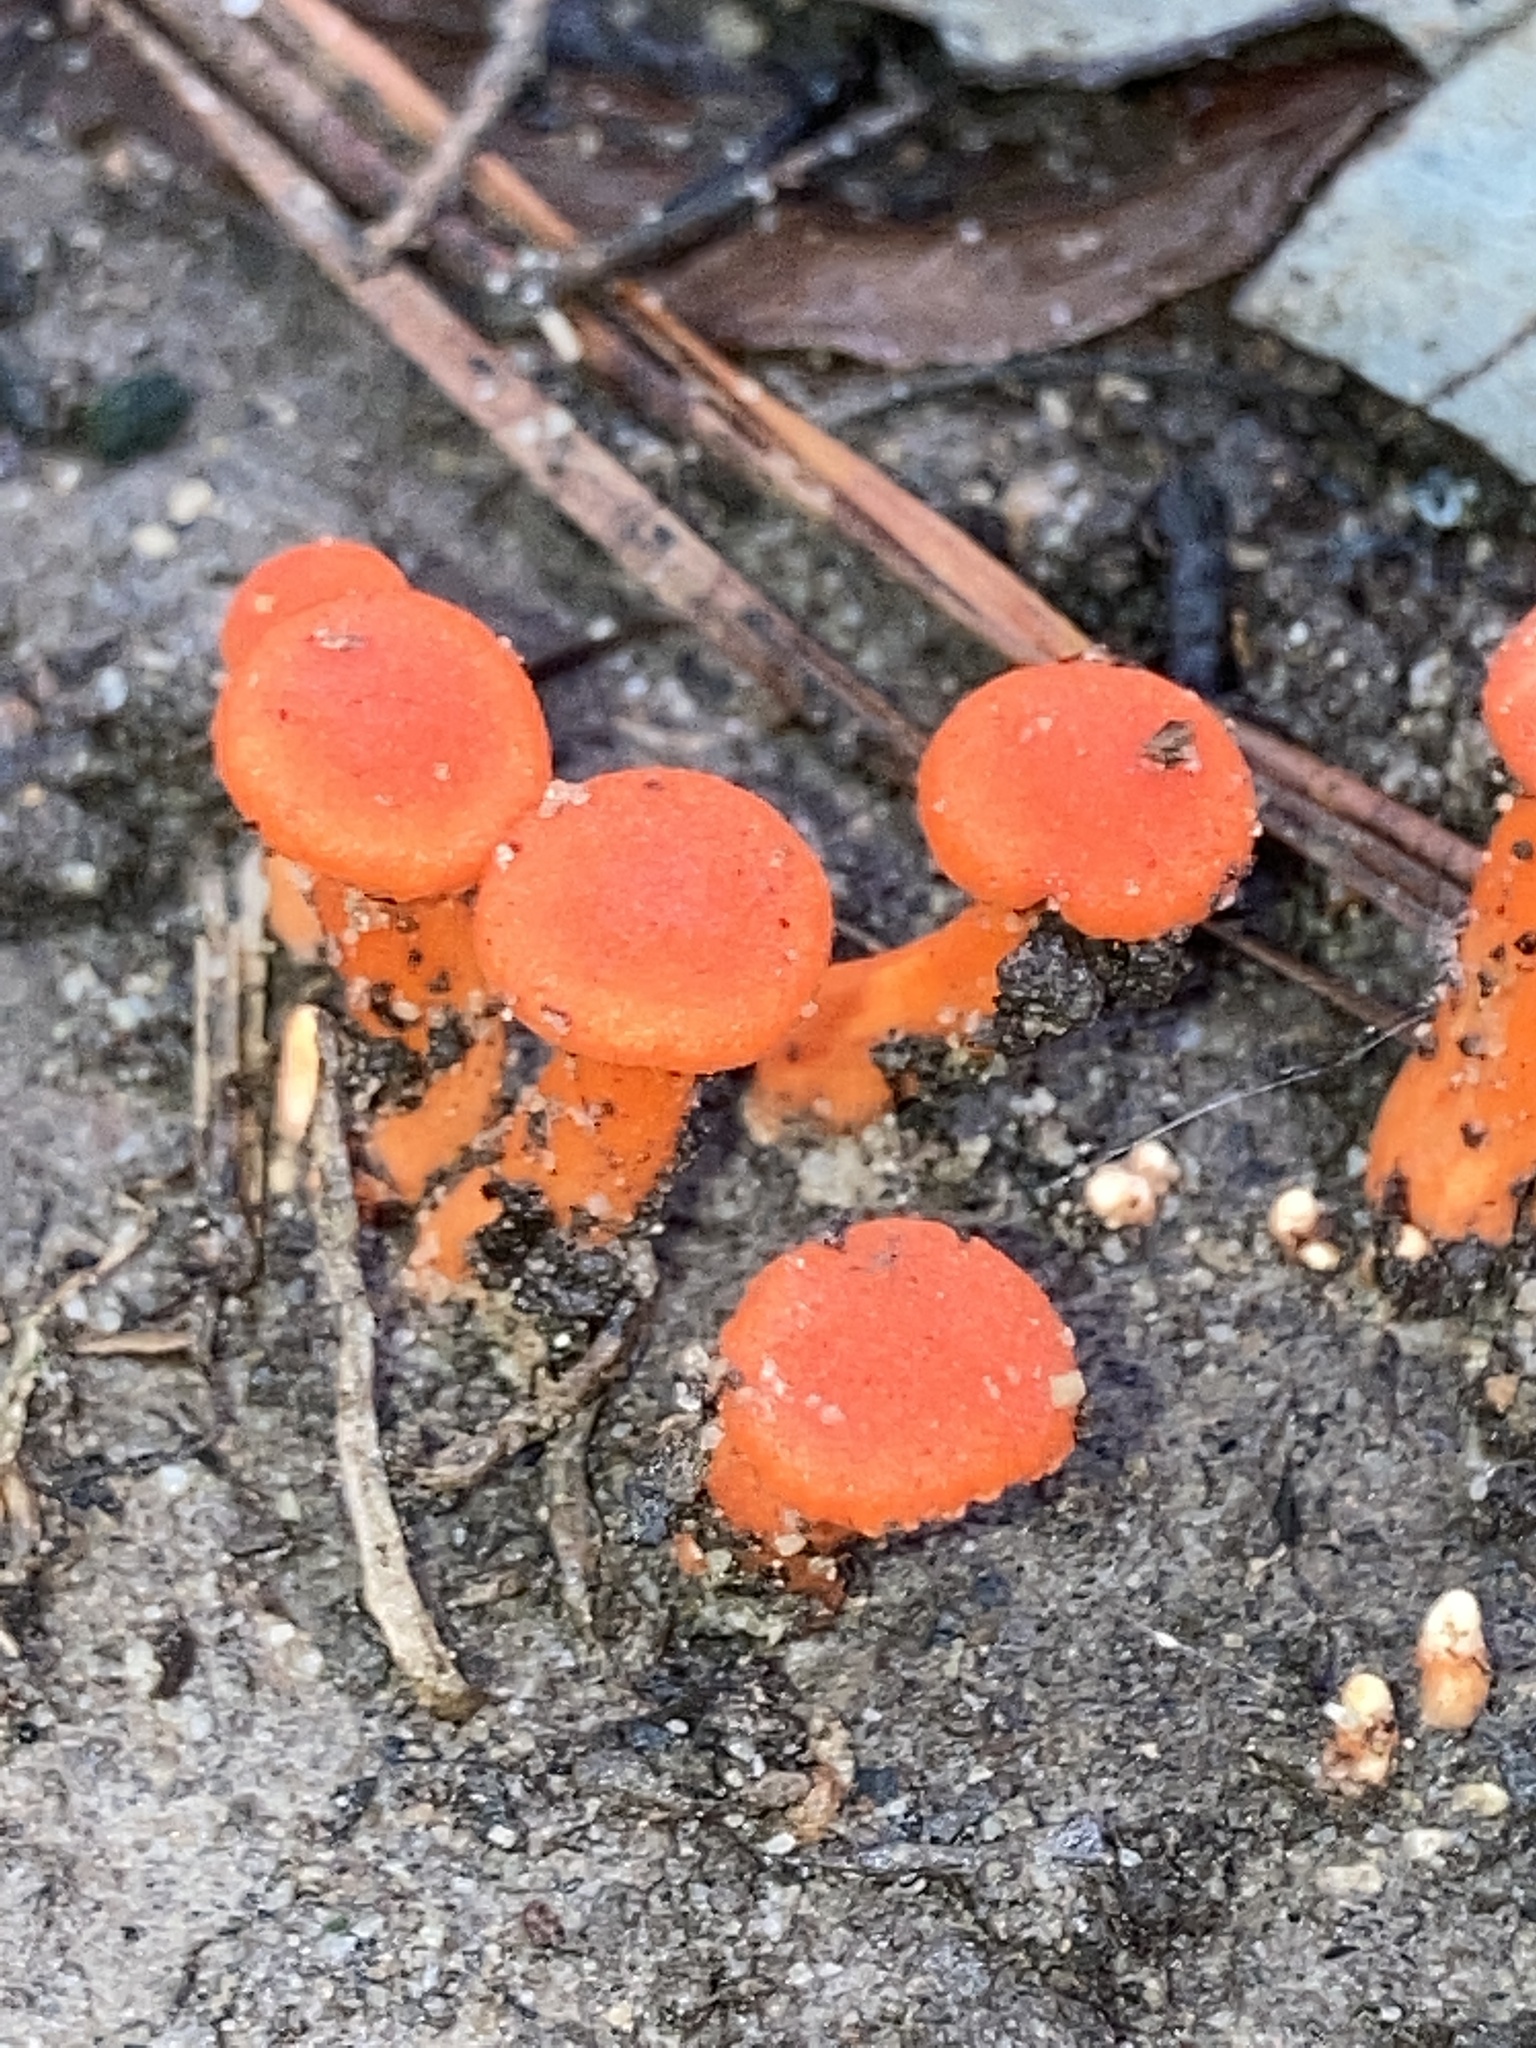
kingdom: Fungi
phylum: Basidiomycota
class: Agaricomycetes
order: Cantharellales
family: Hydnaceae
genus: Cantharellus
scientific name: Cantharellus cinnabarinus
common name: Cinnabar chanterelle
